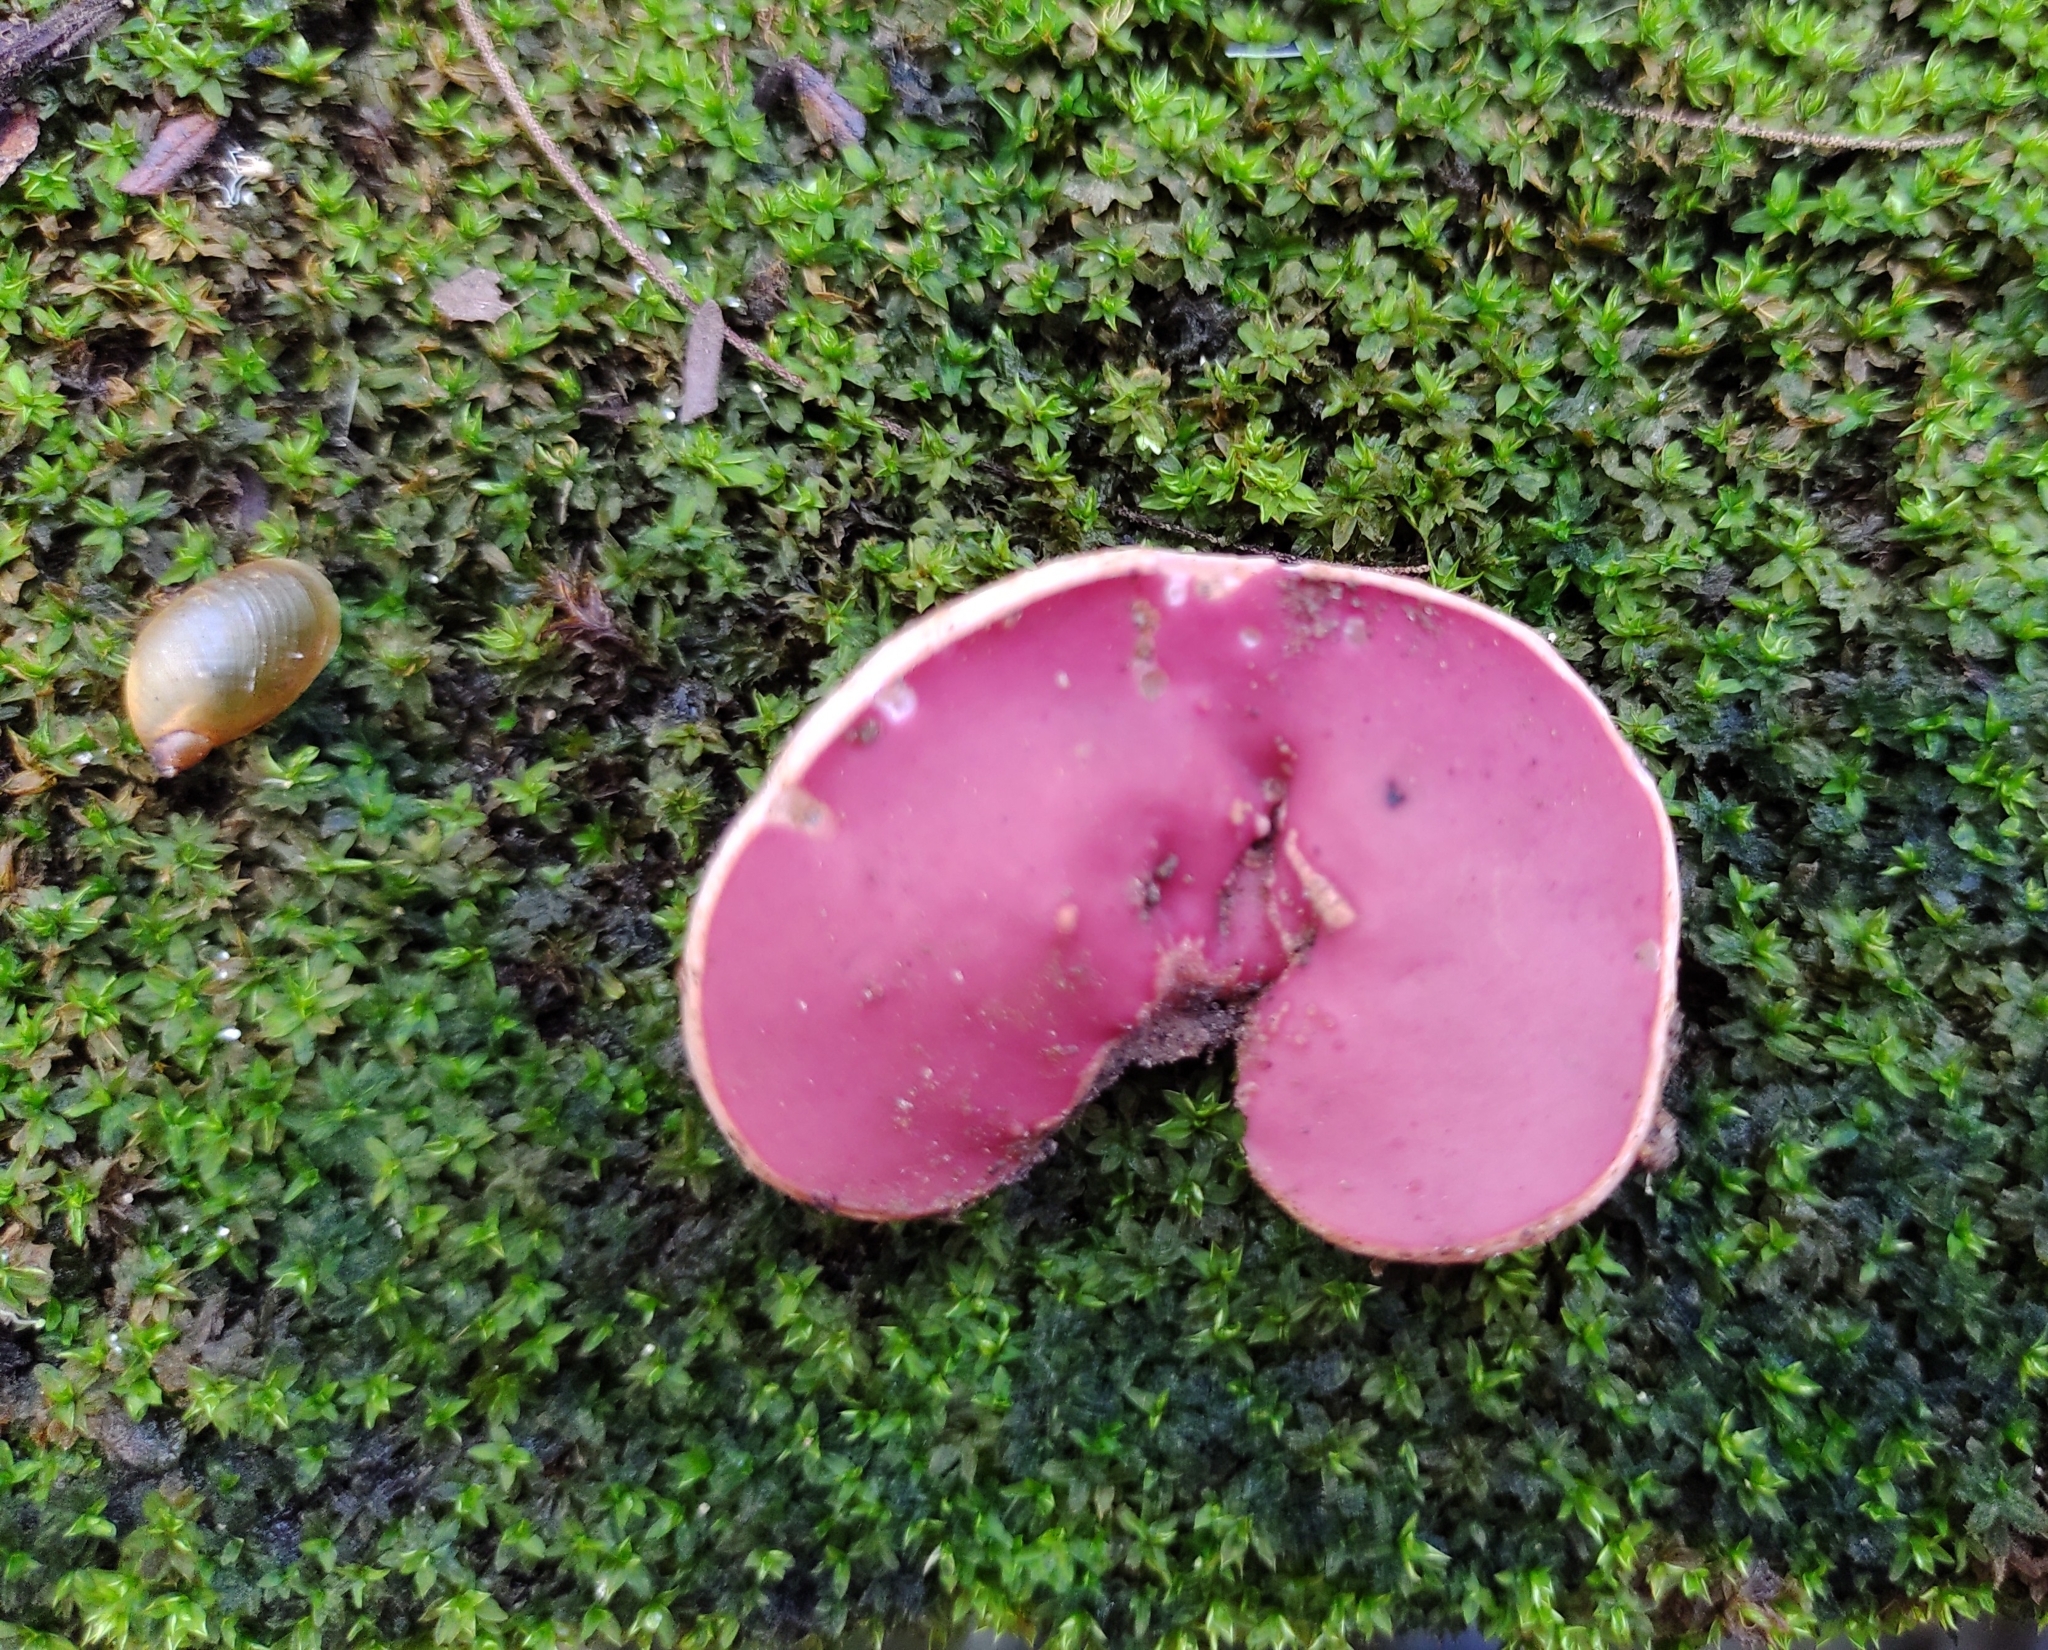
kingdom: Fungi
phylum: Ascomycota
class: Pezizomycetes
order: Pezizales
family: Sarcoscyphaceae
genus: Phillipsia
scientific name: Phillipsia domingensis
